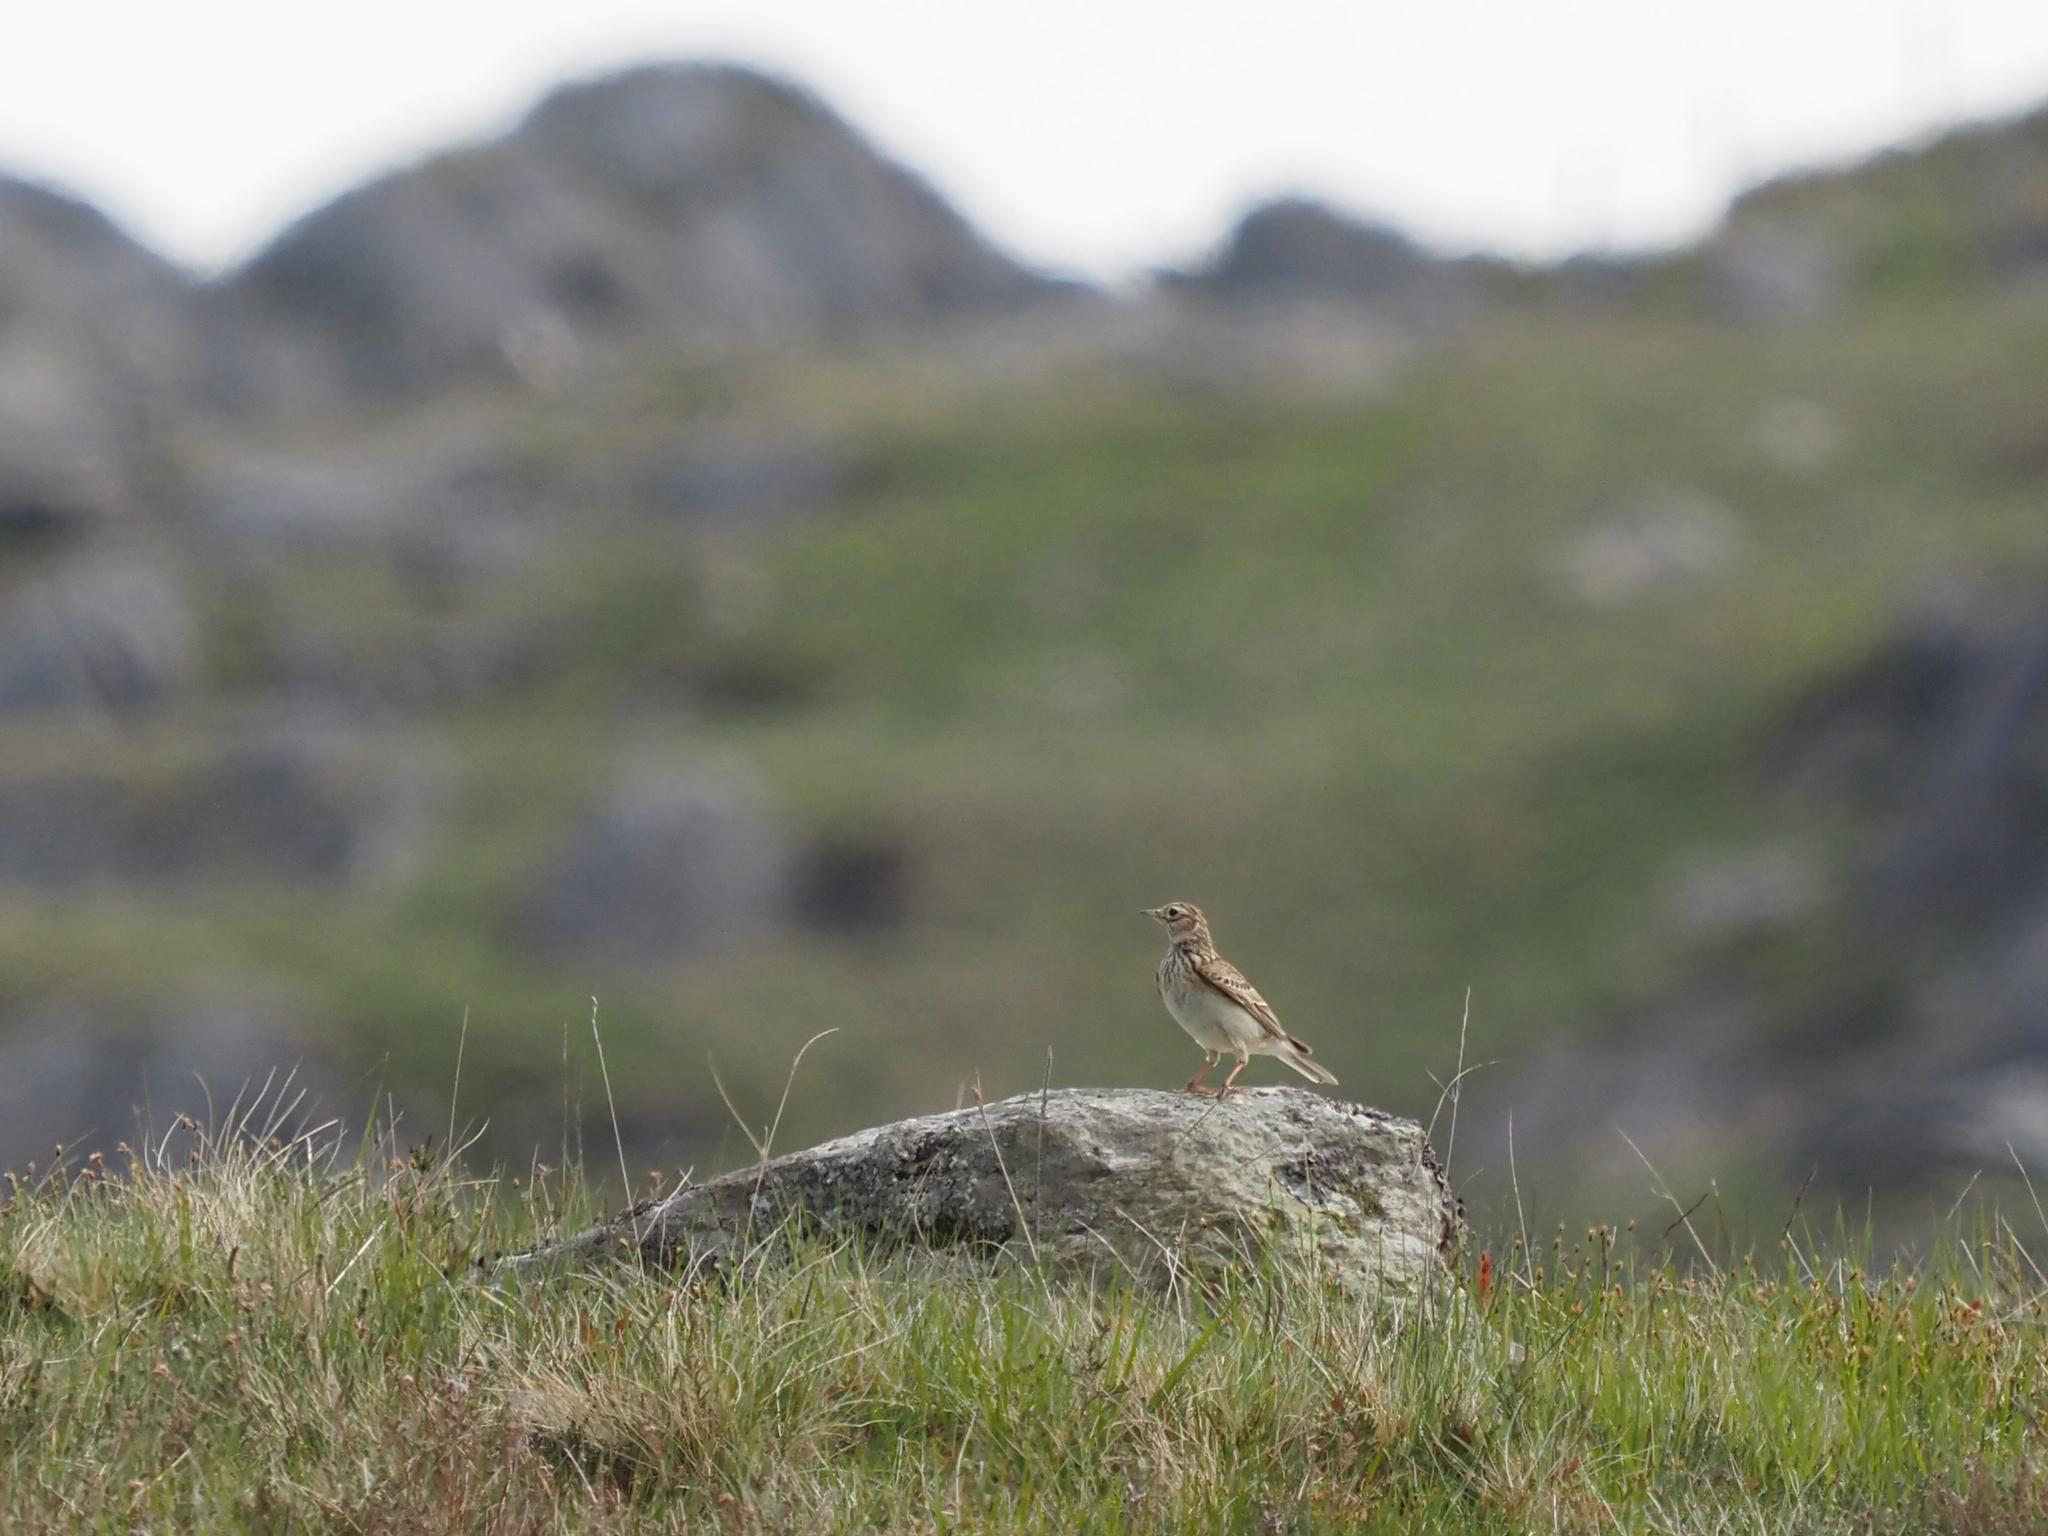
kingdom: Animalia
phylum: Chordata
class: Aves
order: Passeriformes
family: Alaudidae
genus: Alauda
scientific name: Alauda arvensis
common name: Eurasian skylark
